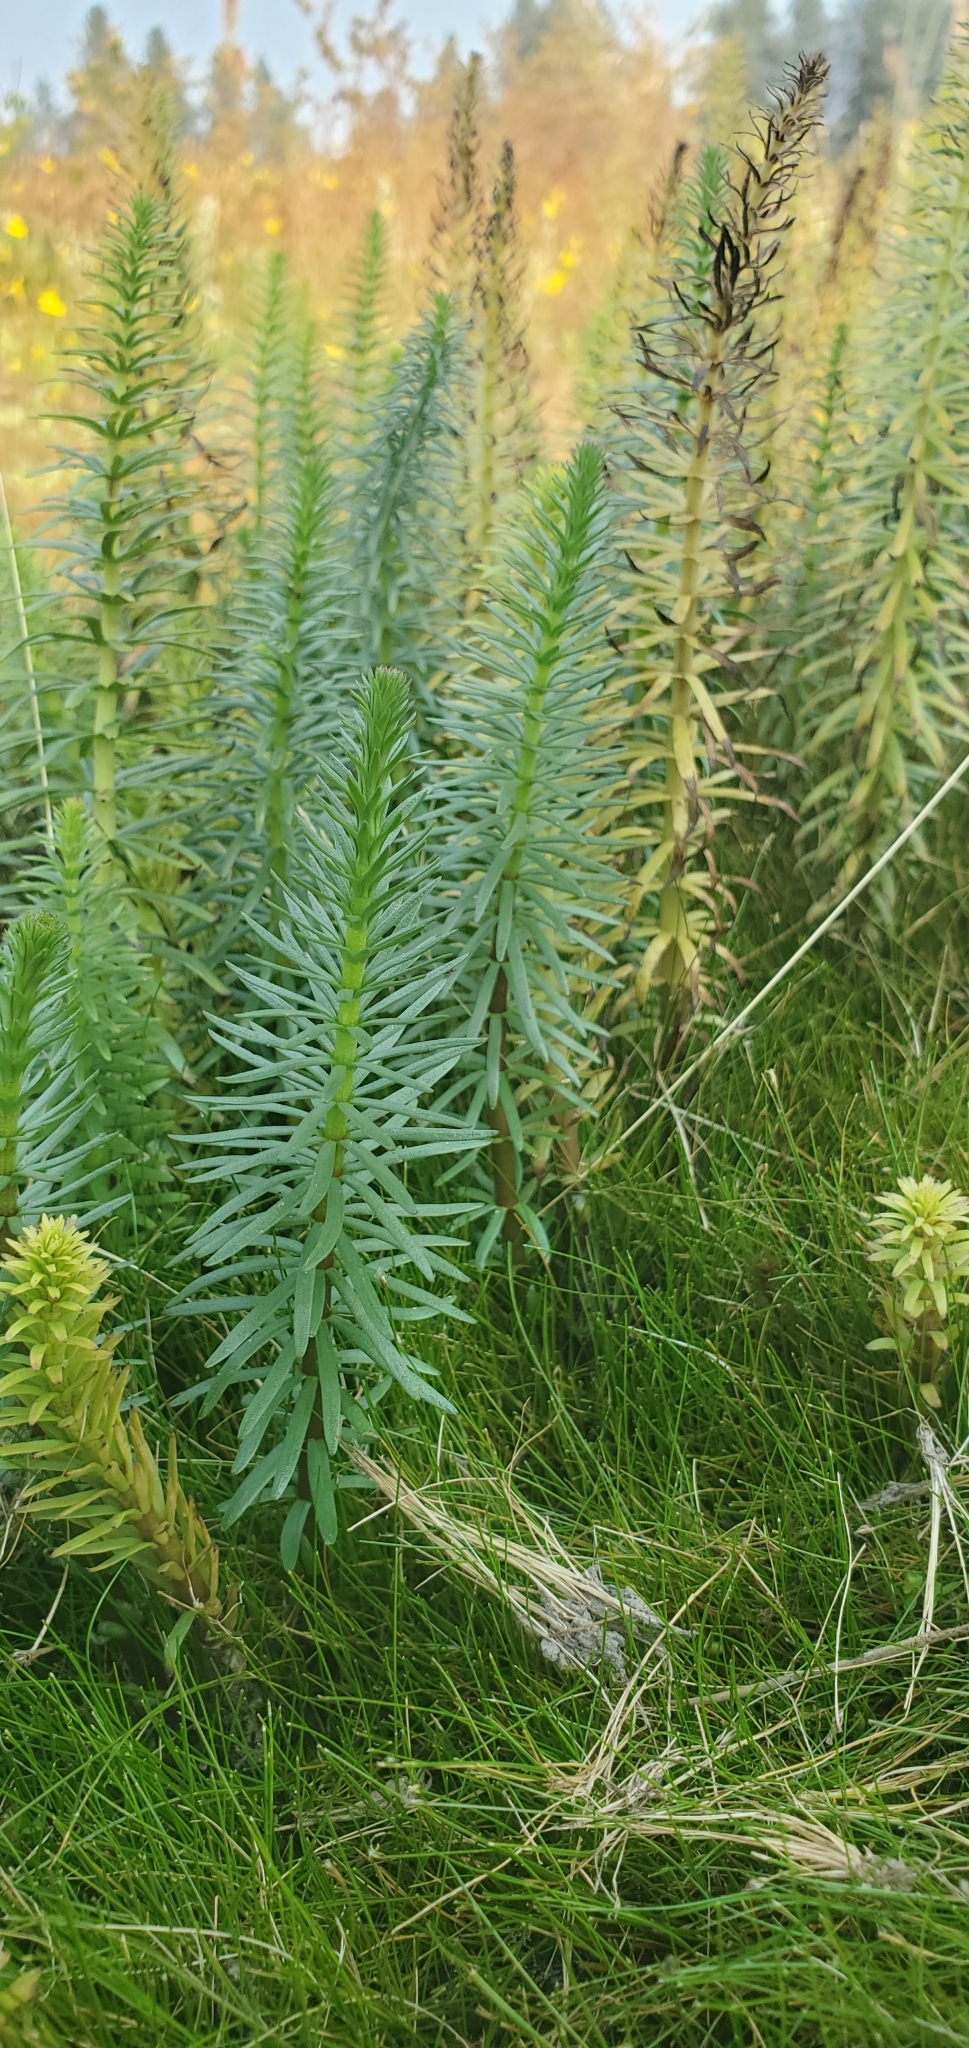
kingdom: Plantae
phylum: Tracheophyta
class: Magnoliopsida
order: Lamiales
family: Plantaginaceae
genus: Hippuris
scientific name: Hippuris vulgaris
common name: Mare's-tail
